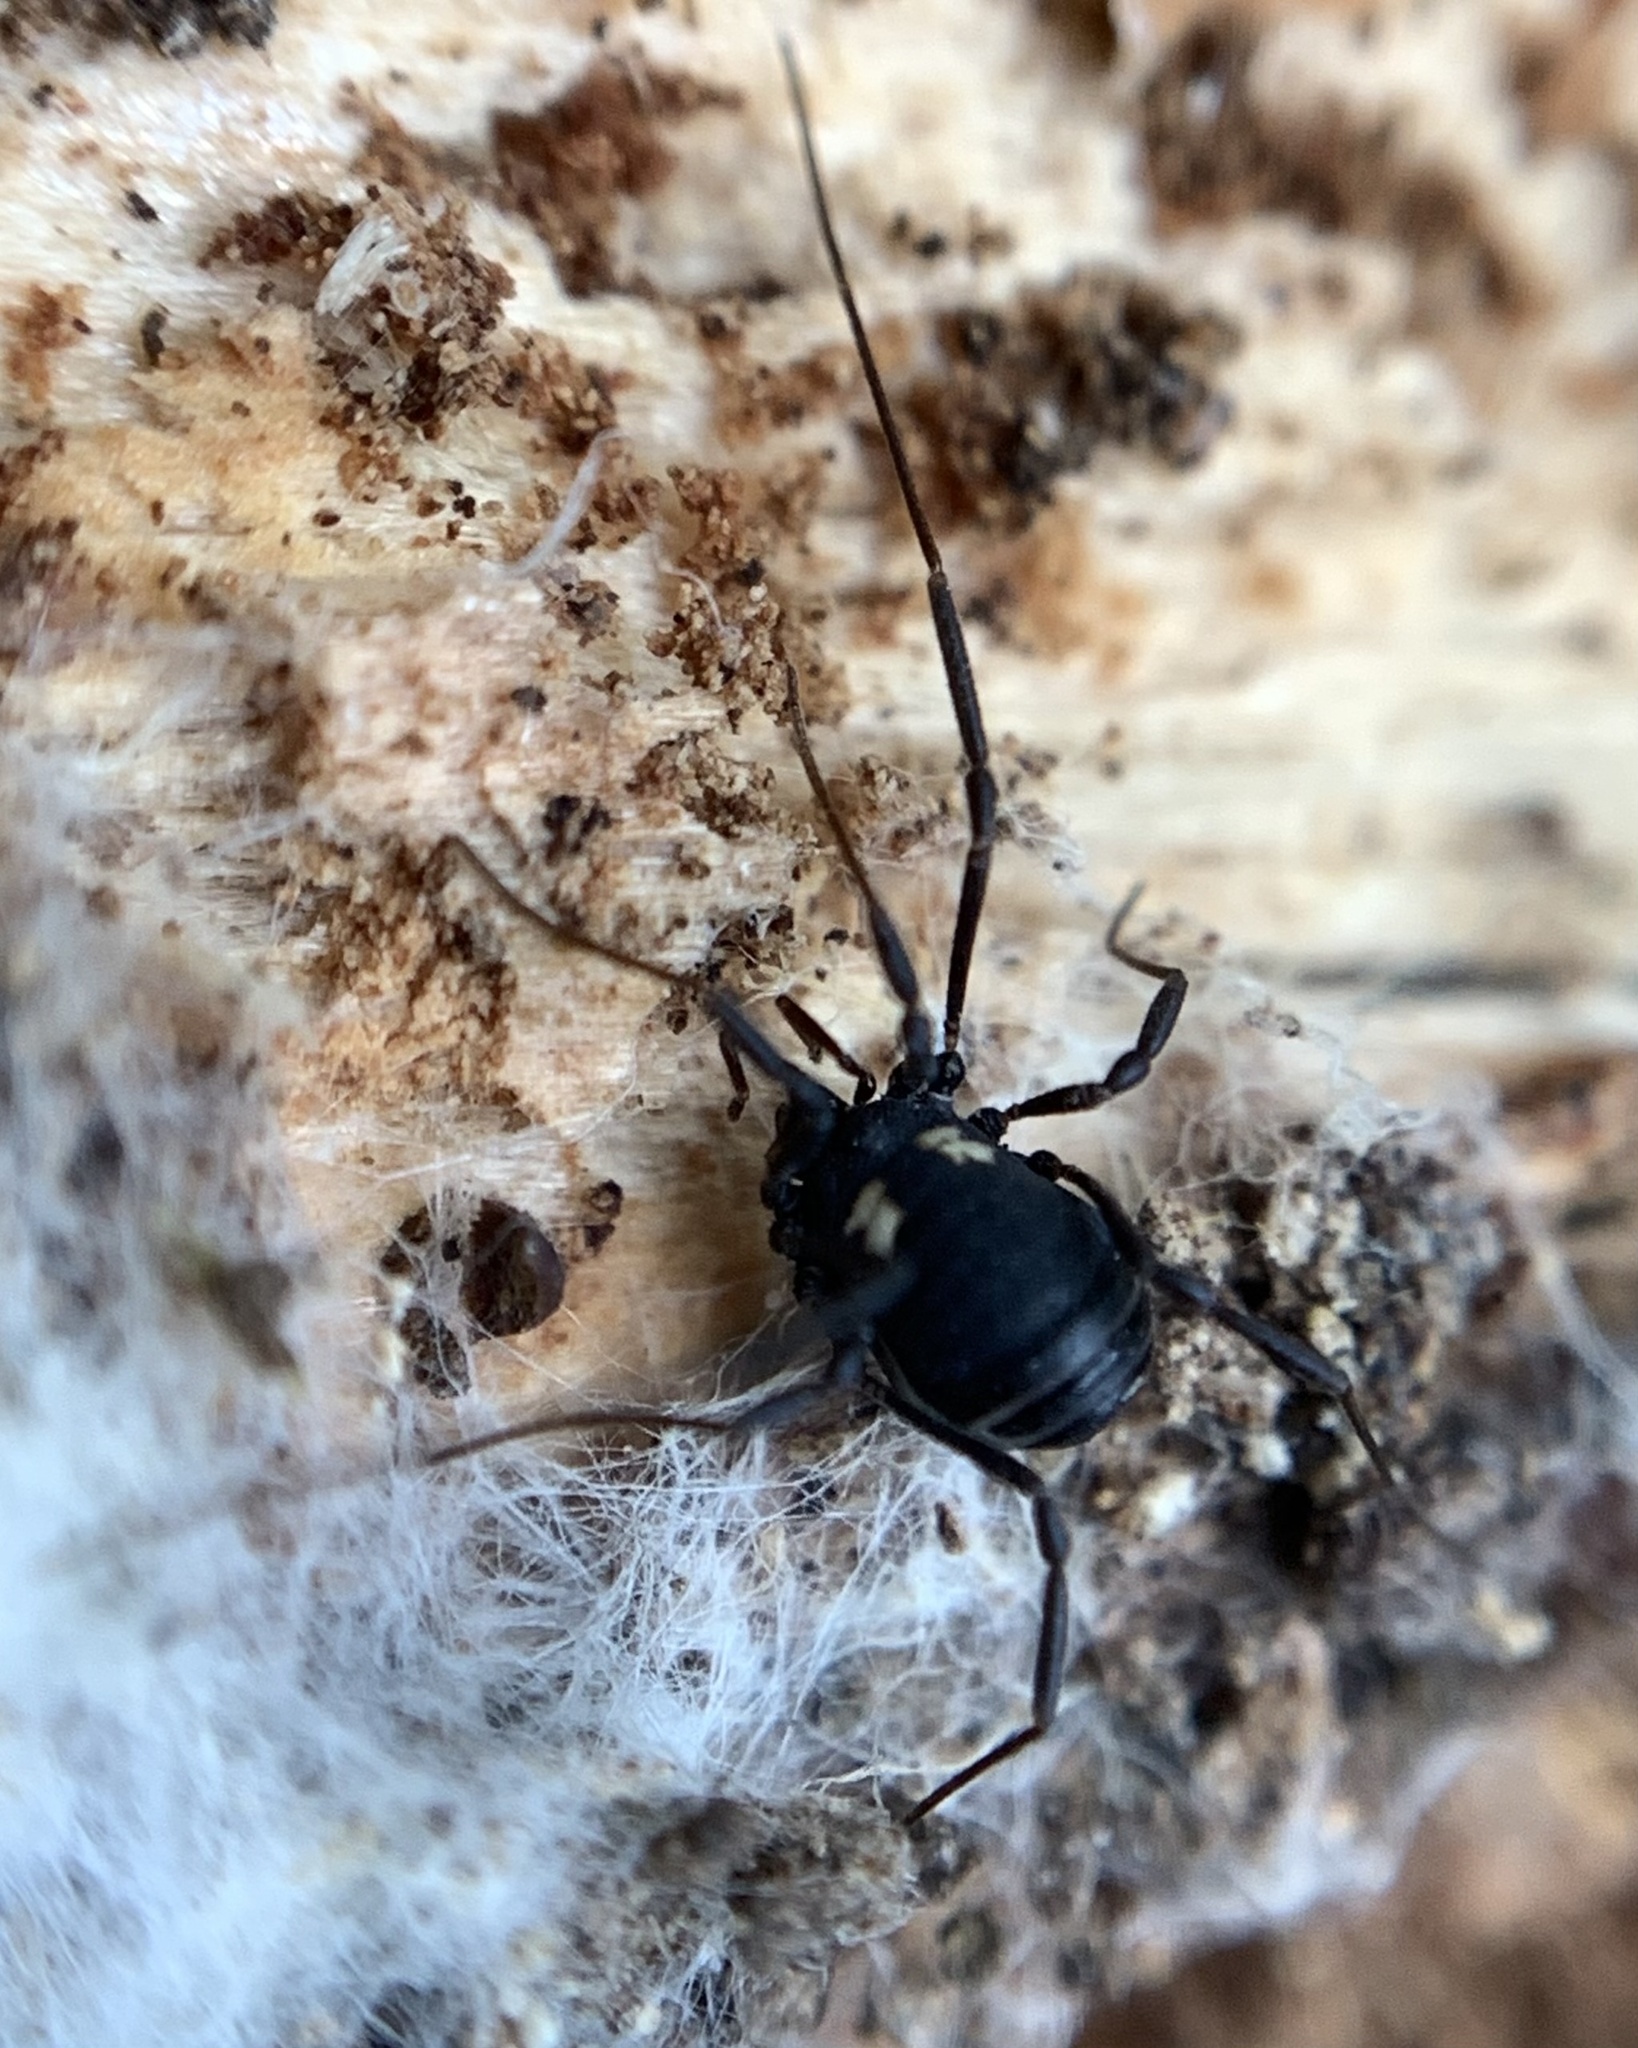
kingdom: Animalia
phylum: Arthropoda
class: Arachnida
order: Opiliones
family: Nemastomatidae
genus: Nemastoma
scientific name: Nemastoma bimaculatum
